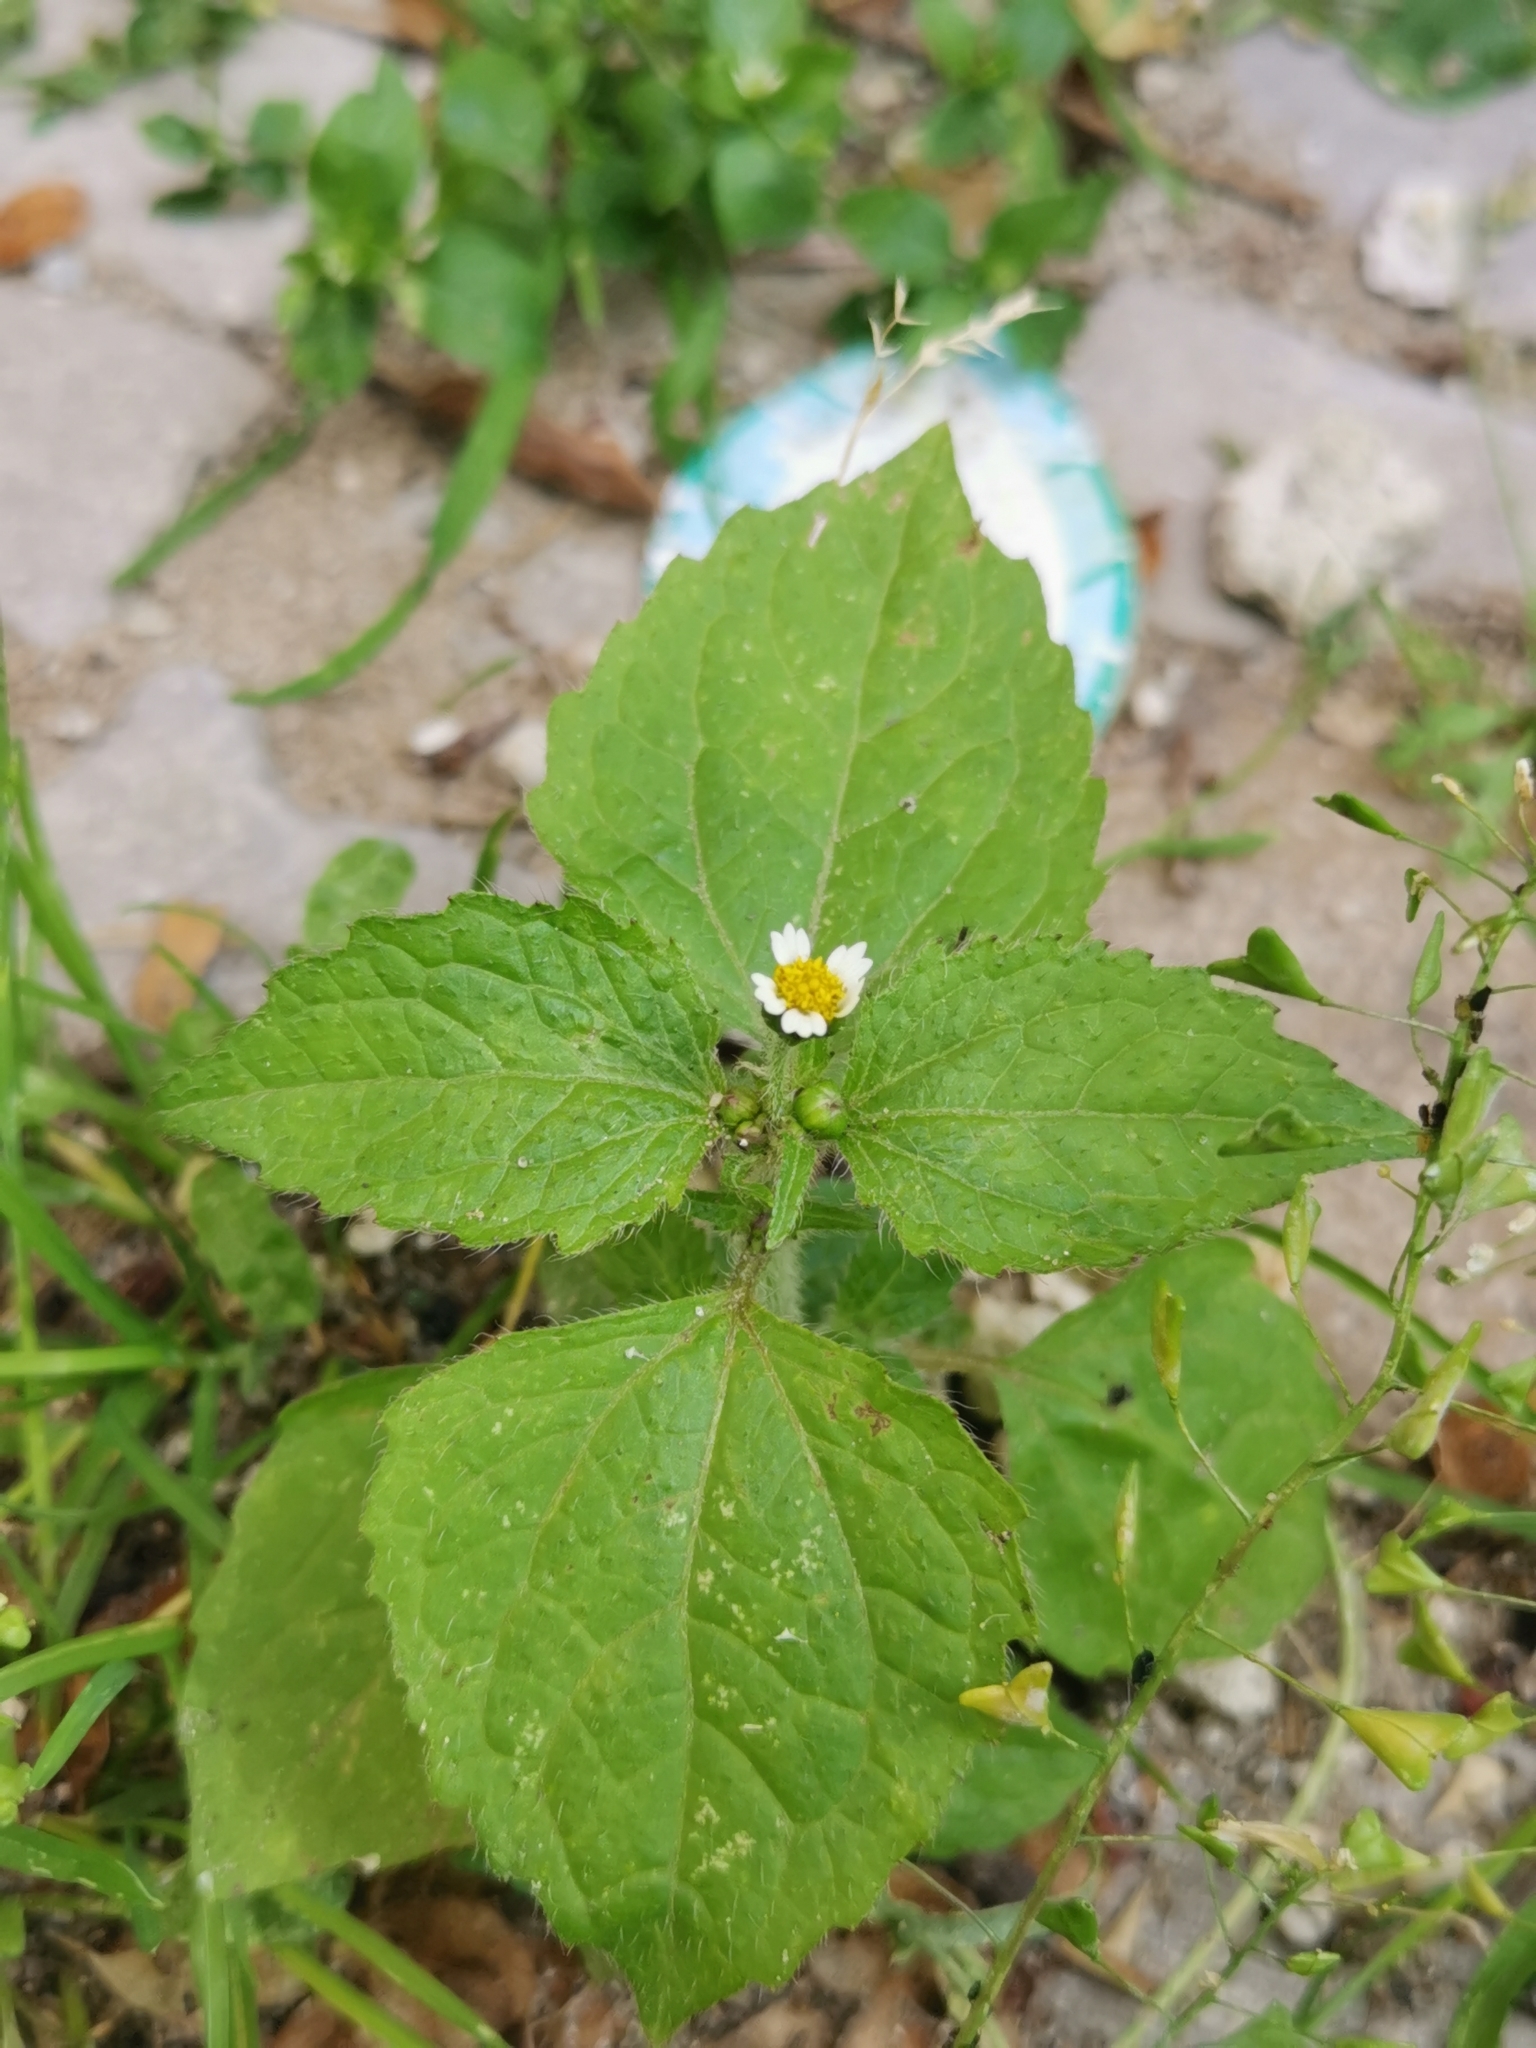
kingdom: Plantae
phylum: Tracheophyta
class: Magnoliopsida
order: Asterales
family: Asteraceae
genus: Galinsoga
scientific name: Galinsoga quadriradiata
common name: Shaggy soldier
